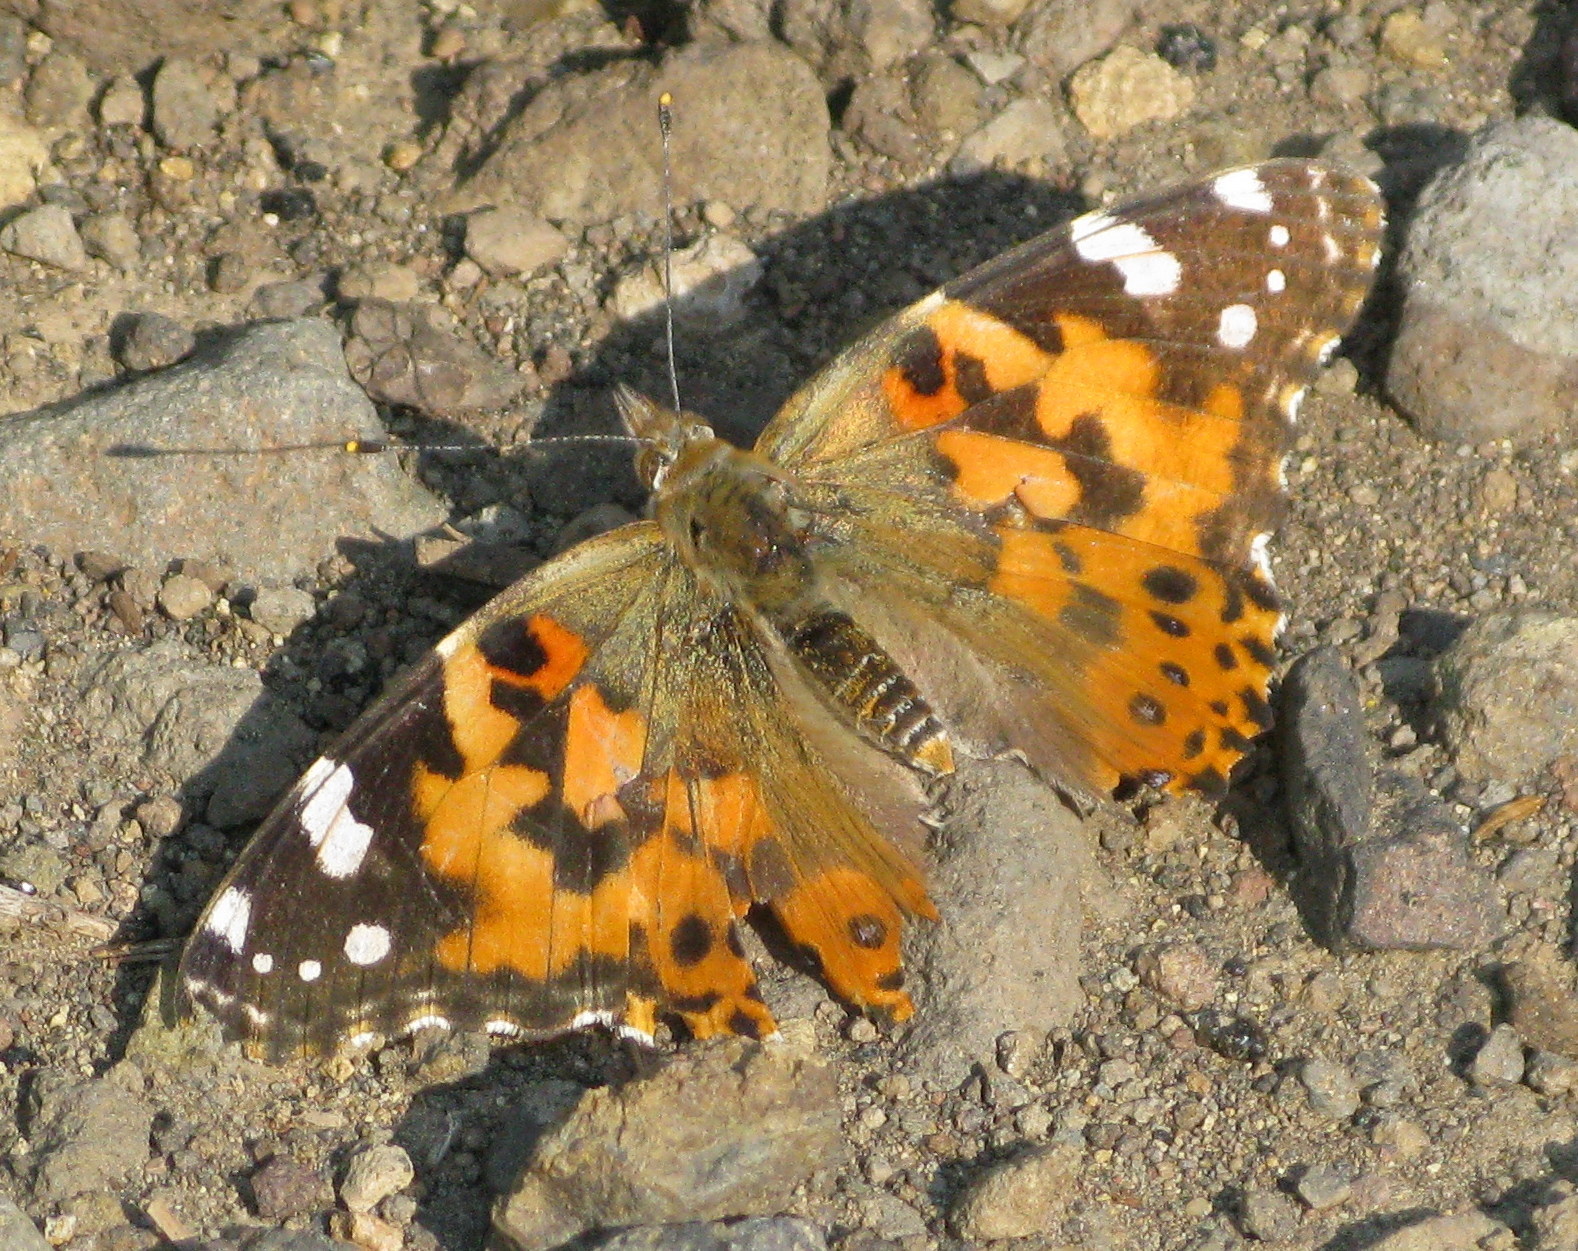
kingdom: Animalia
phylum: Arthropoda
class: Insecta
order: Lepidoptera
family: Nymphalidae
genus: Vanessa
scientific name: Vanessa cardui
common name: Painted lady
